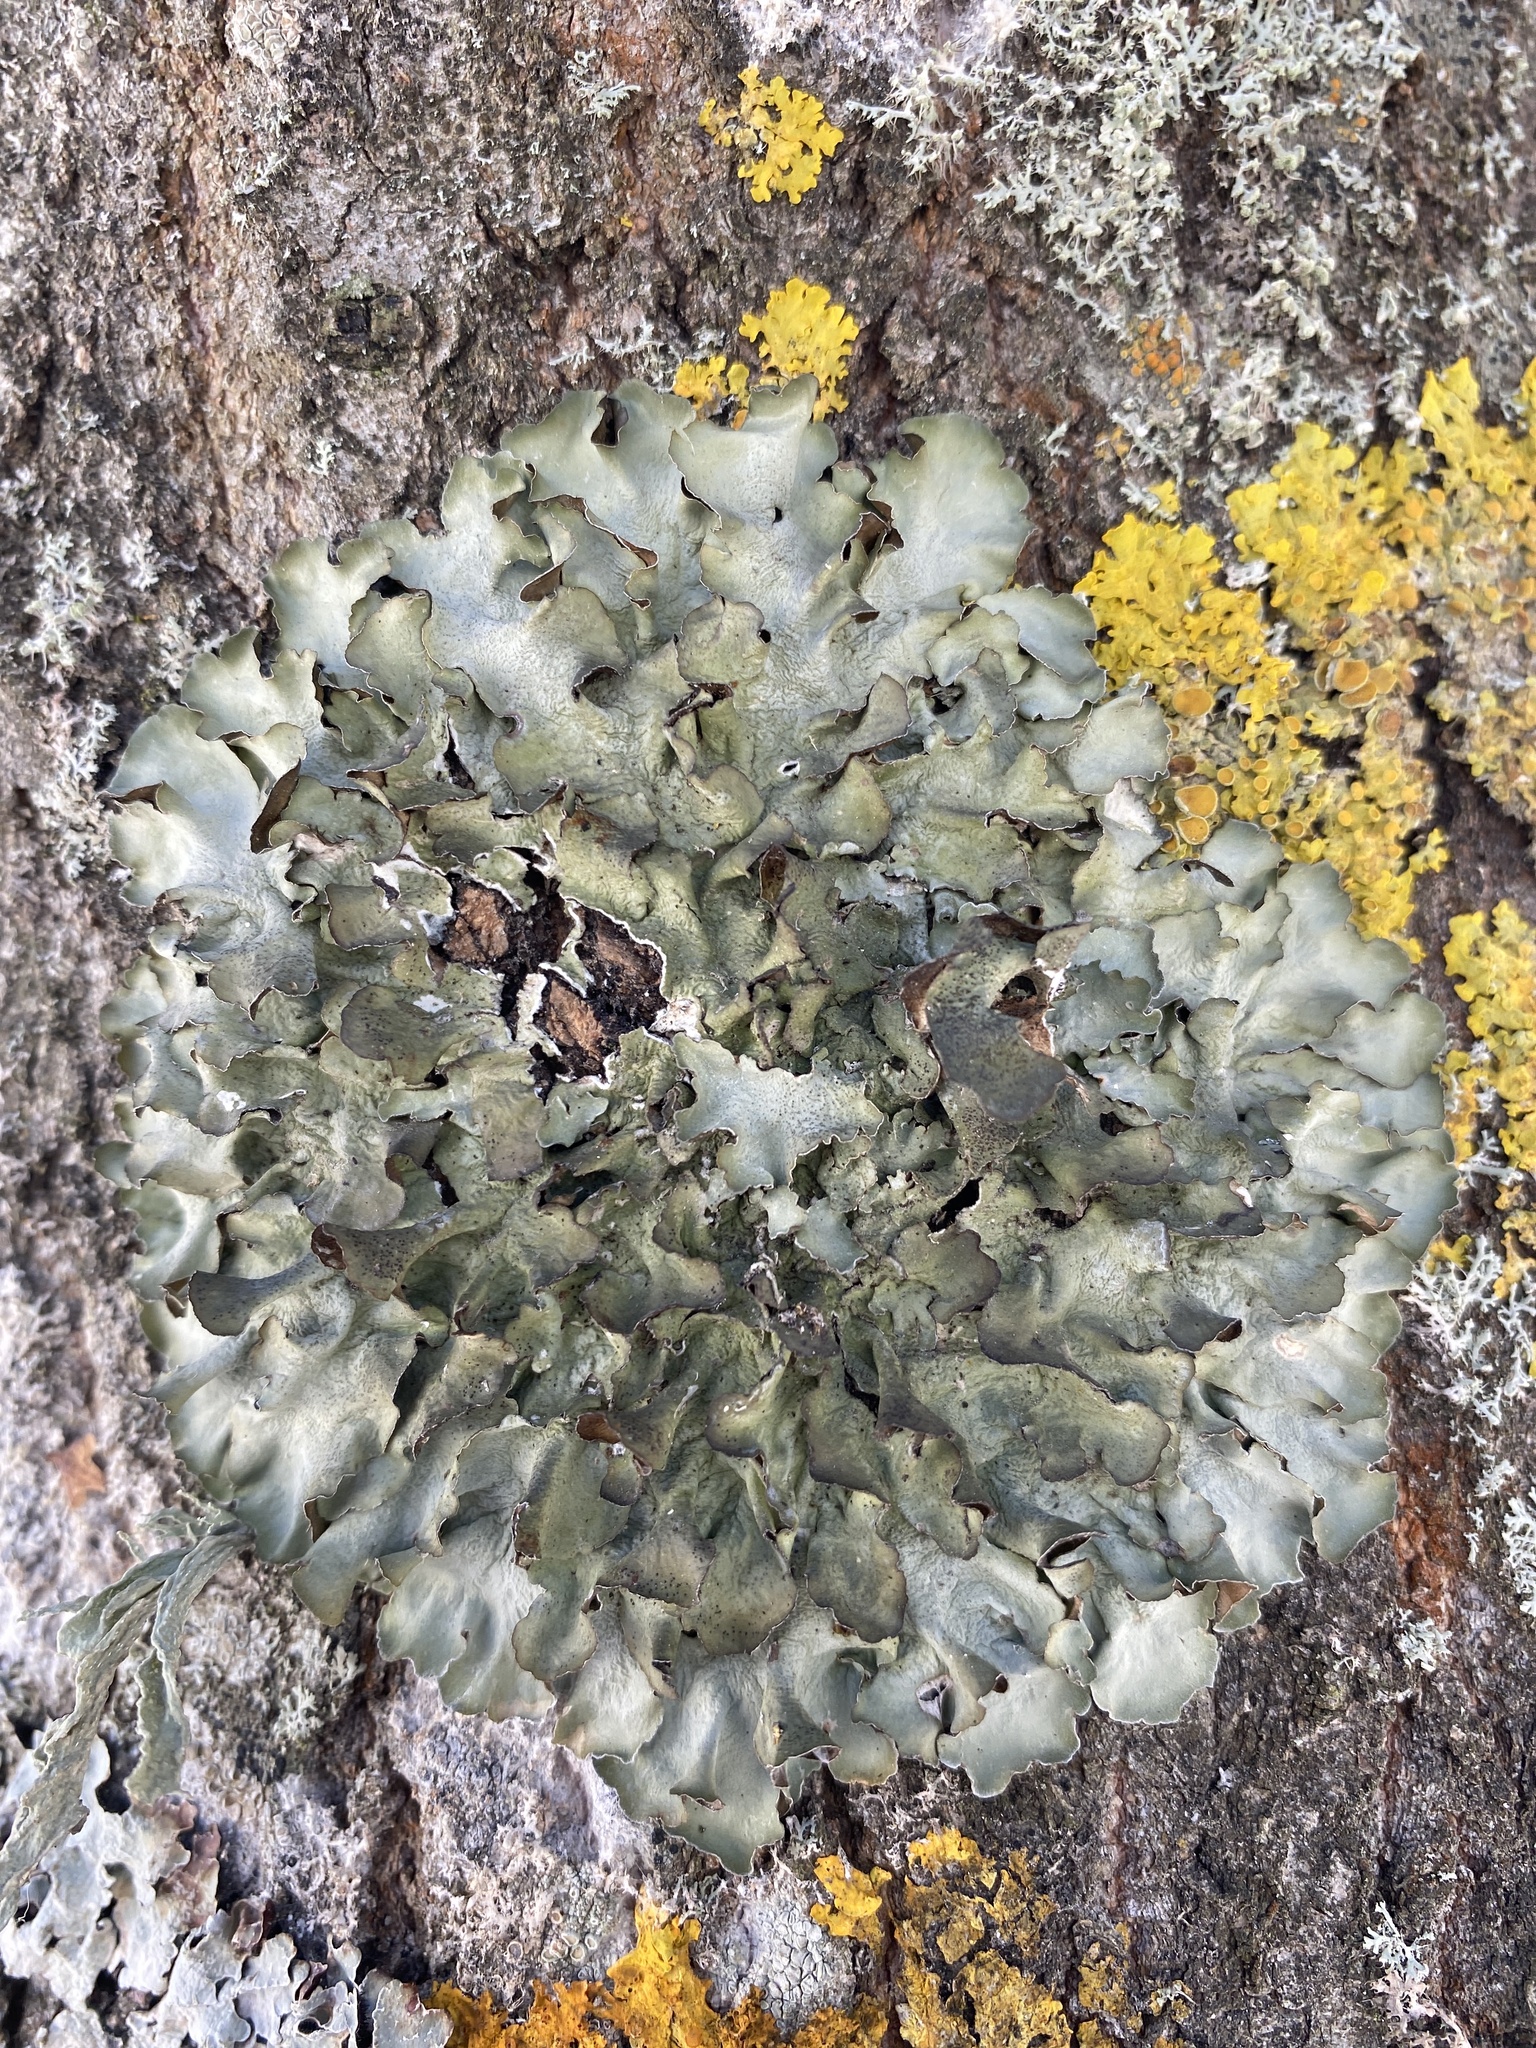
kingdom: Fungi
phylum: Ascomycota
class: Lecanoromycetes
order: Lecanorales
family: Parmeliaceae
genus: Pleurosticta
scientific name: Pleurosticta acetabulum
